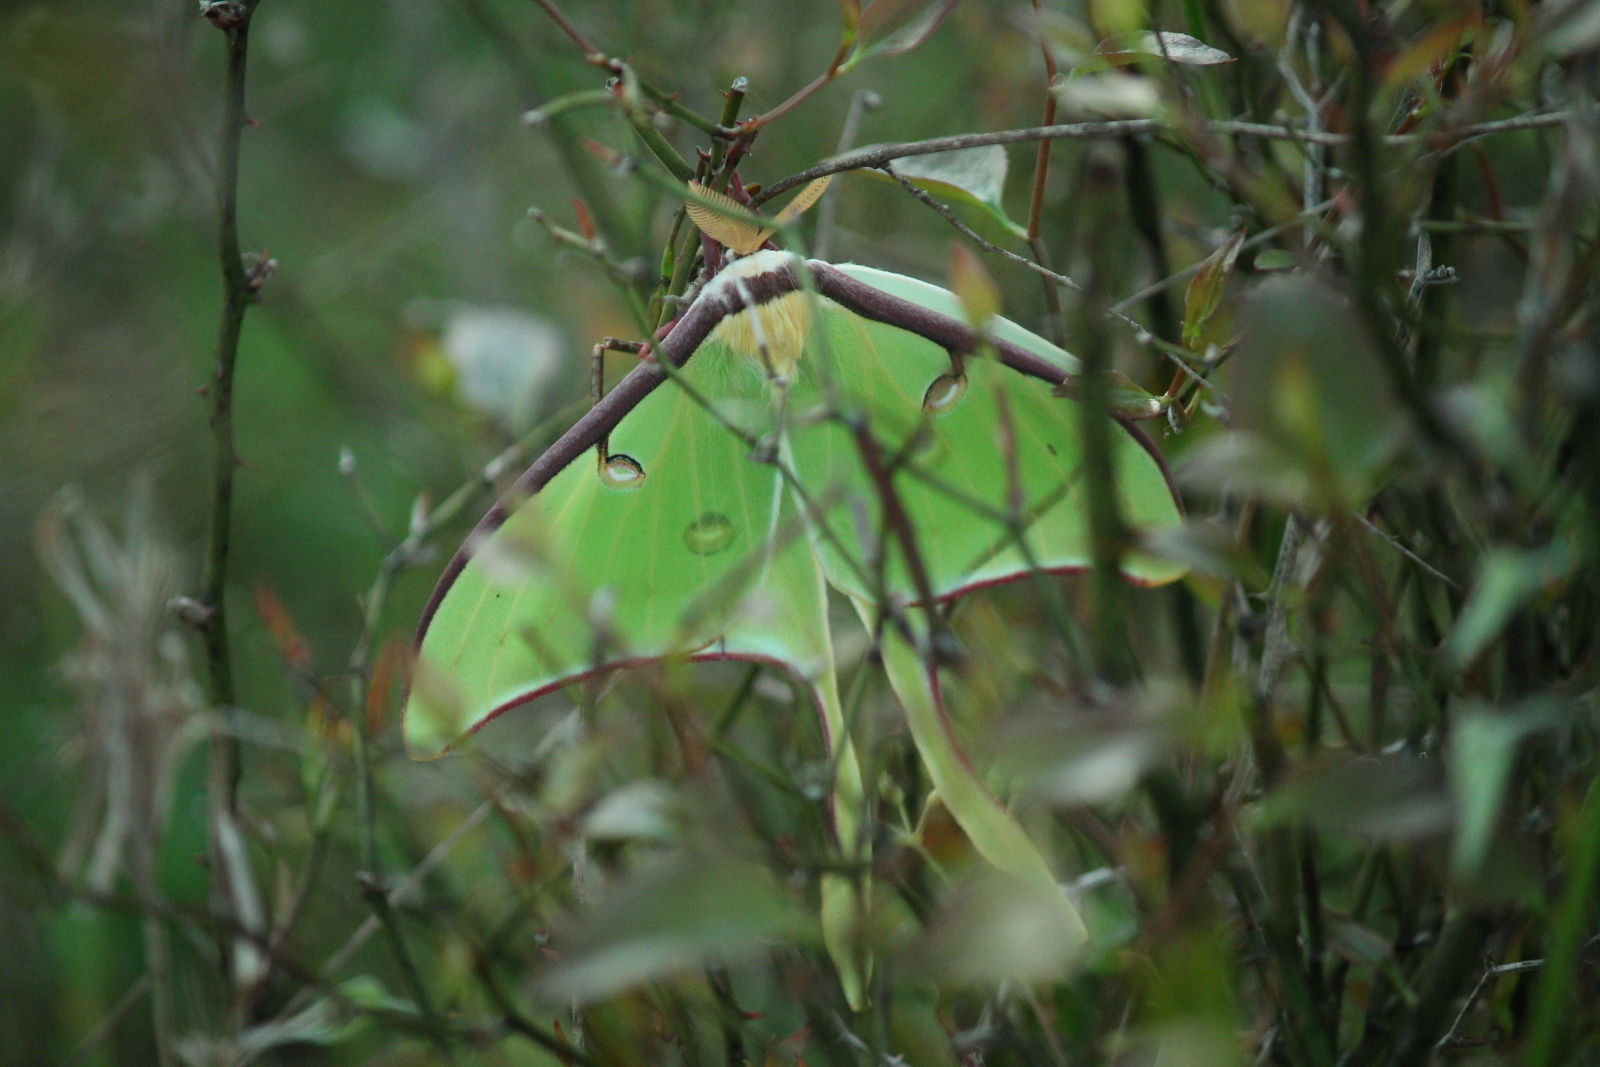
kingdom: Animalia
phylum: Arthropoda
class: Insecta
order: Lepidoptera
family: Saturniidae
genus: Actias
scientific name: Actias luna
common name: Luna moth
